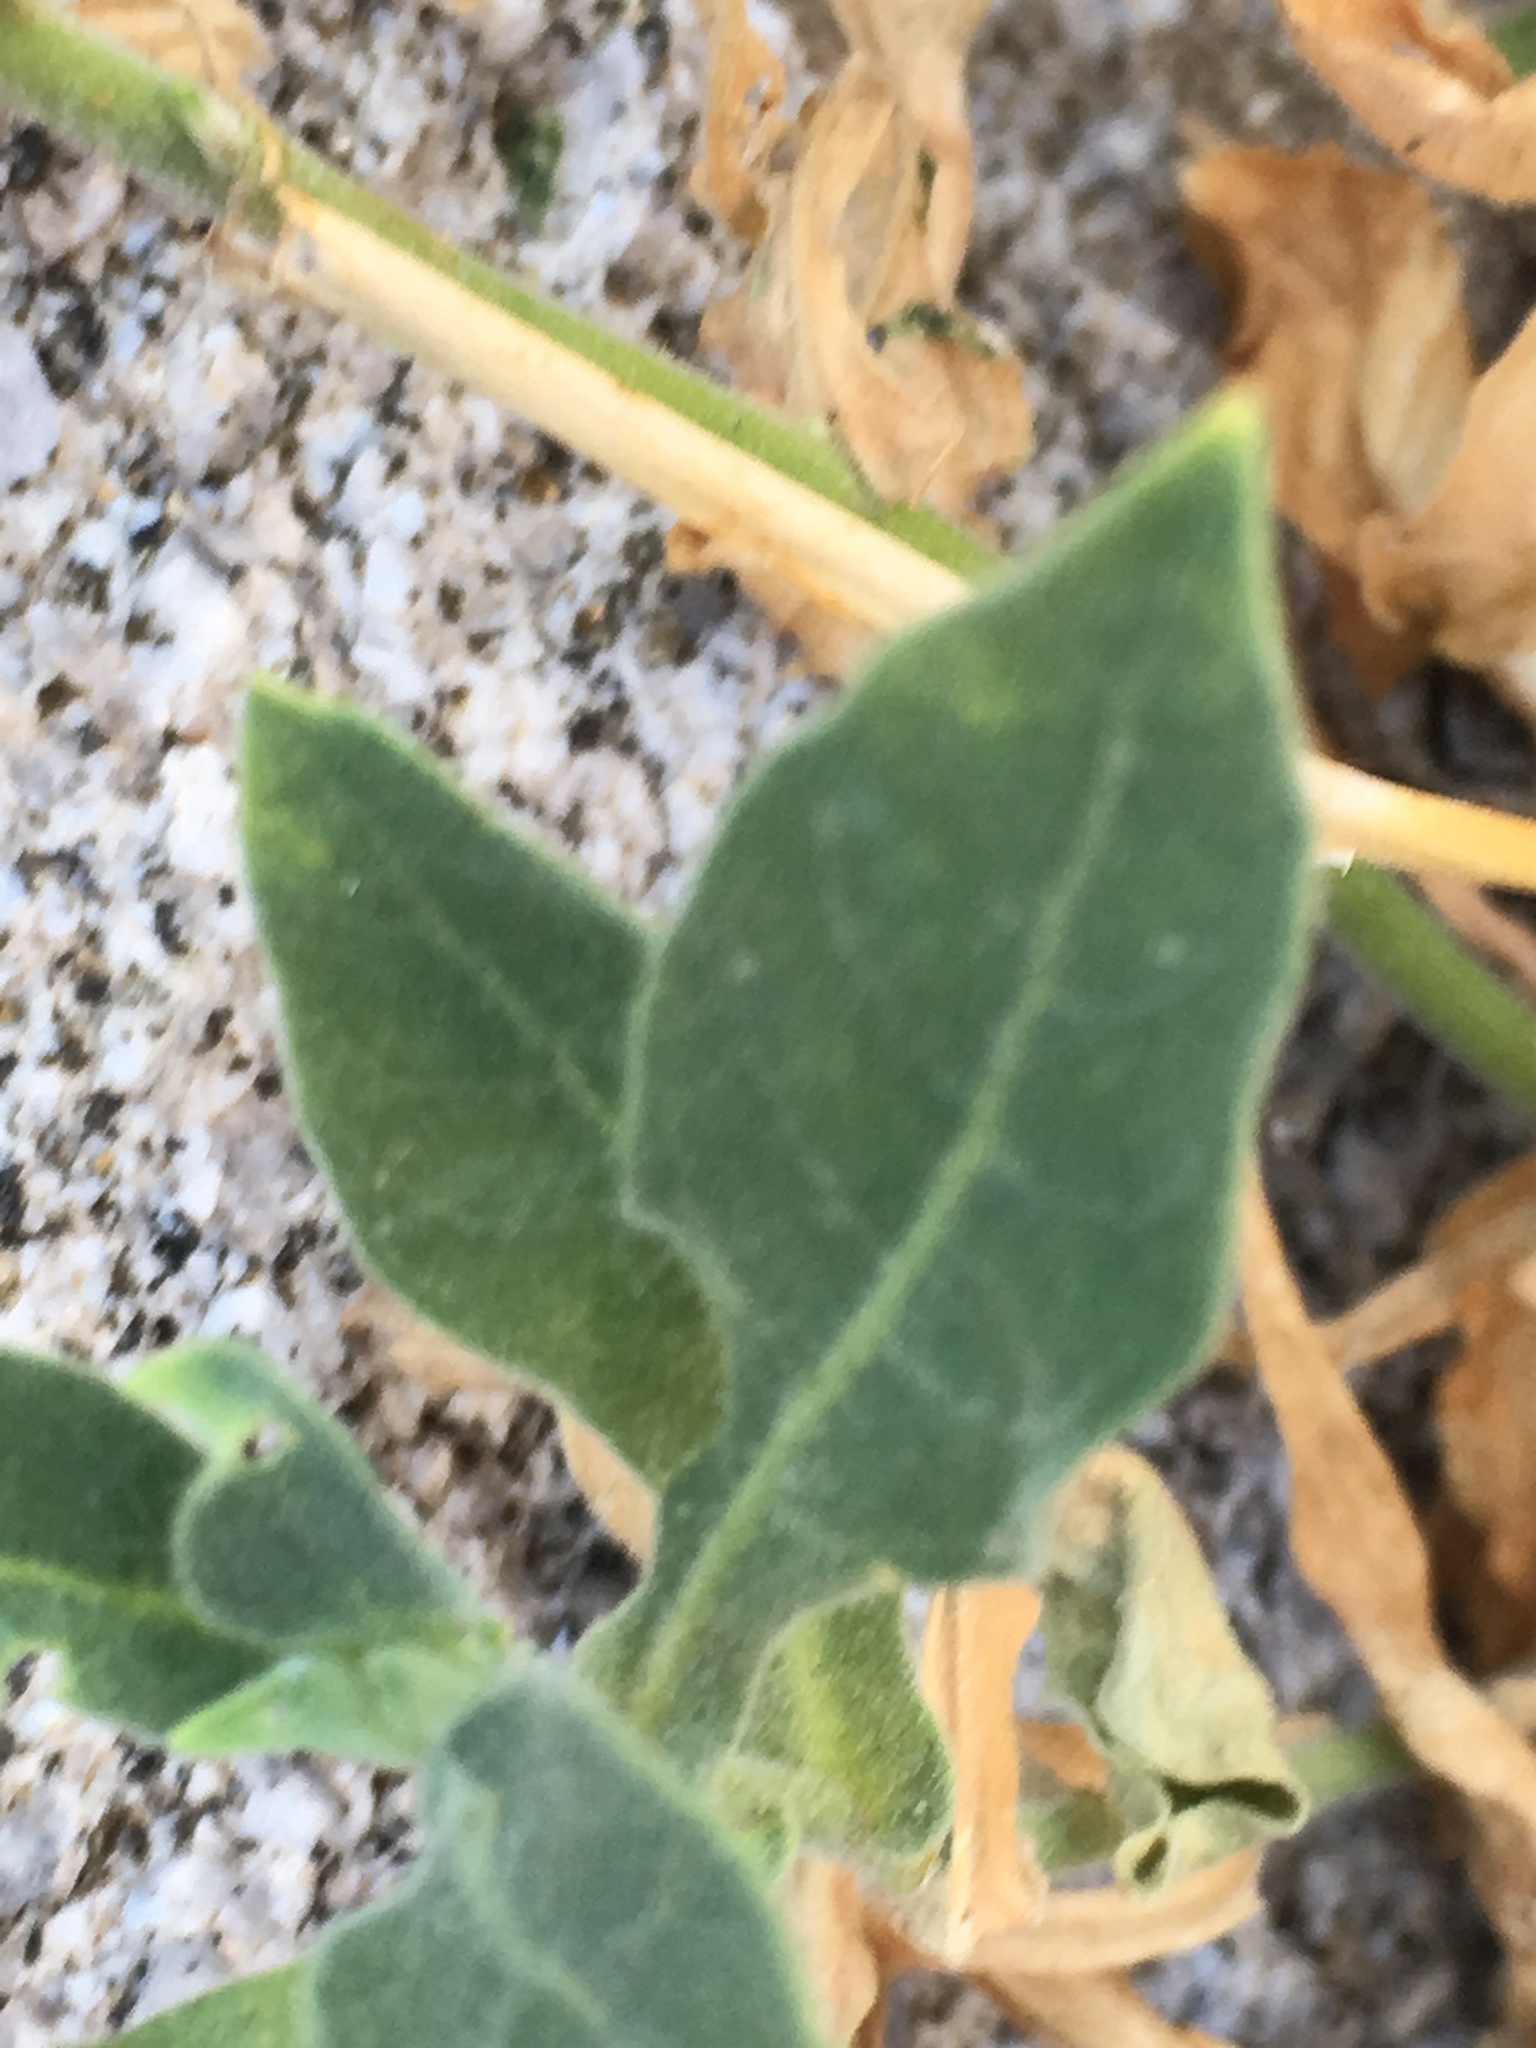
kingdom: Plantae
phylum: Tracheophyta
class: Magnoliopsida
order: Solanales
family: Solanaceae
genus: Nicotiana
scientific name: Nicotiana obtusifolia
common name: Desert tobacco
